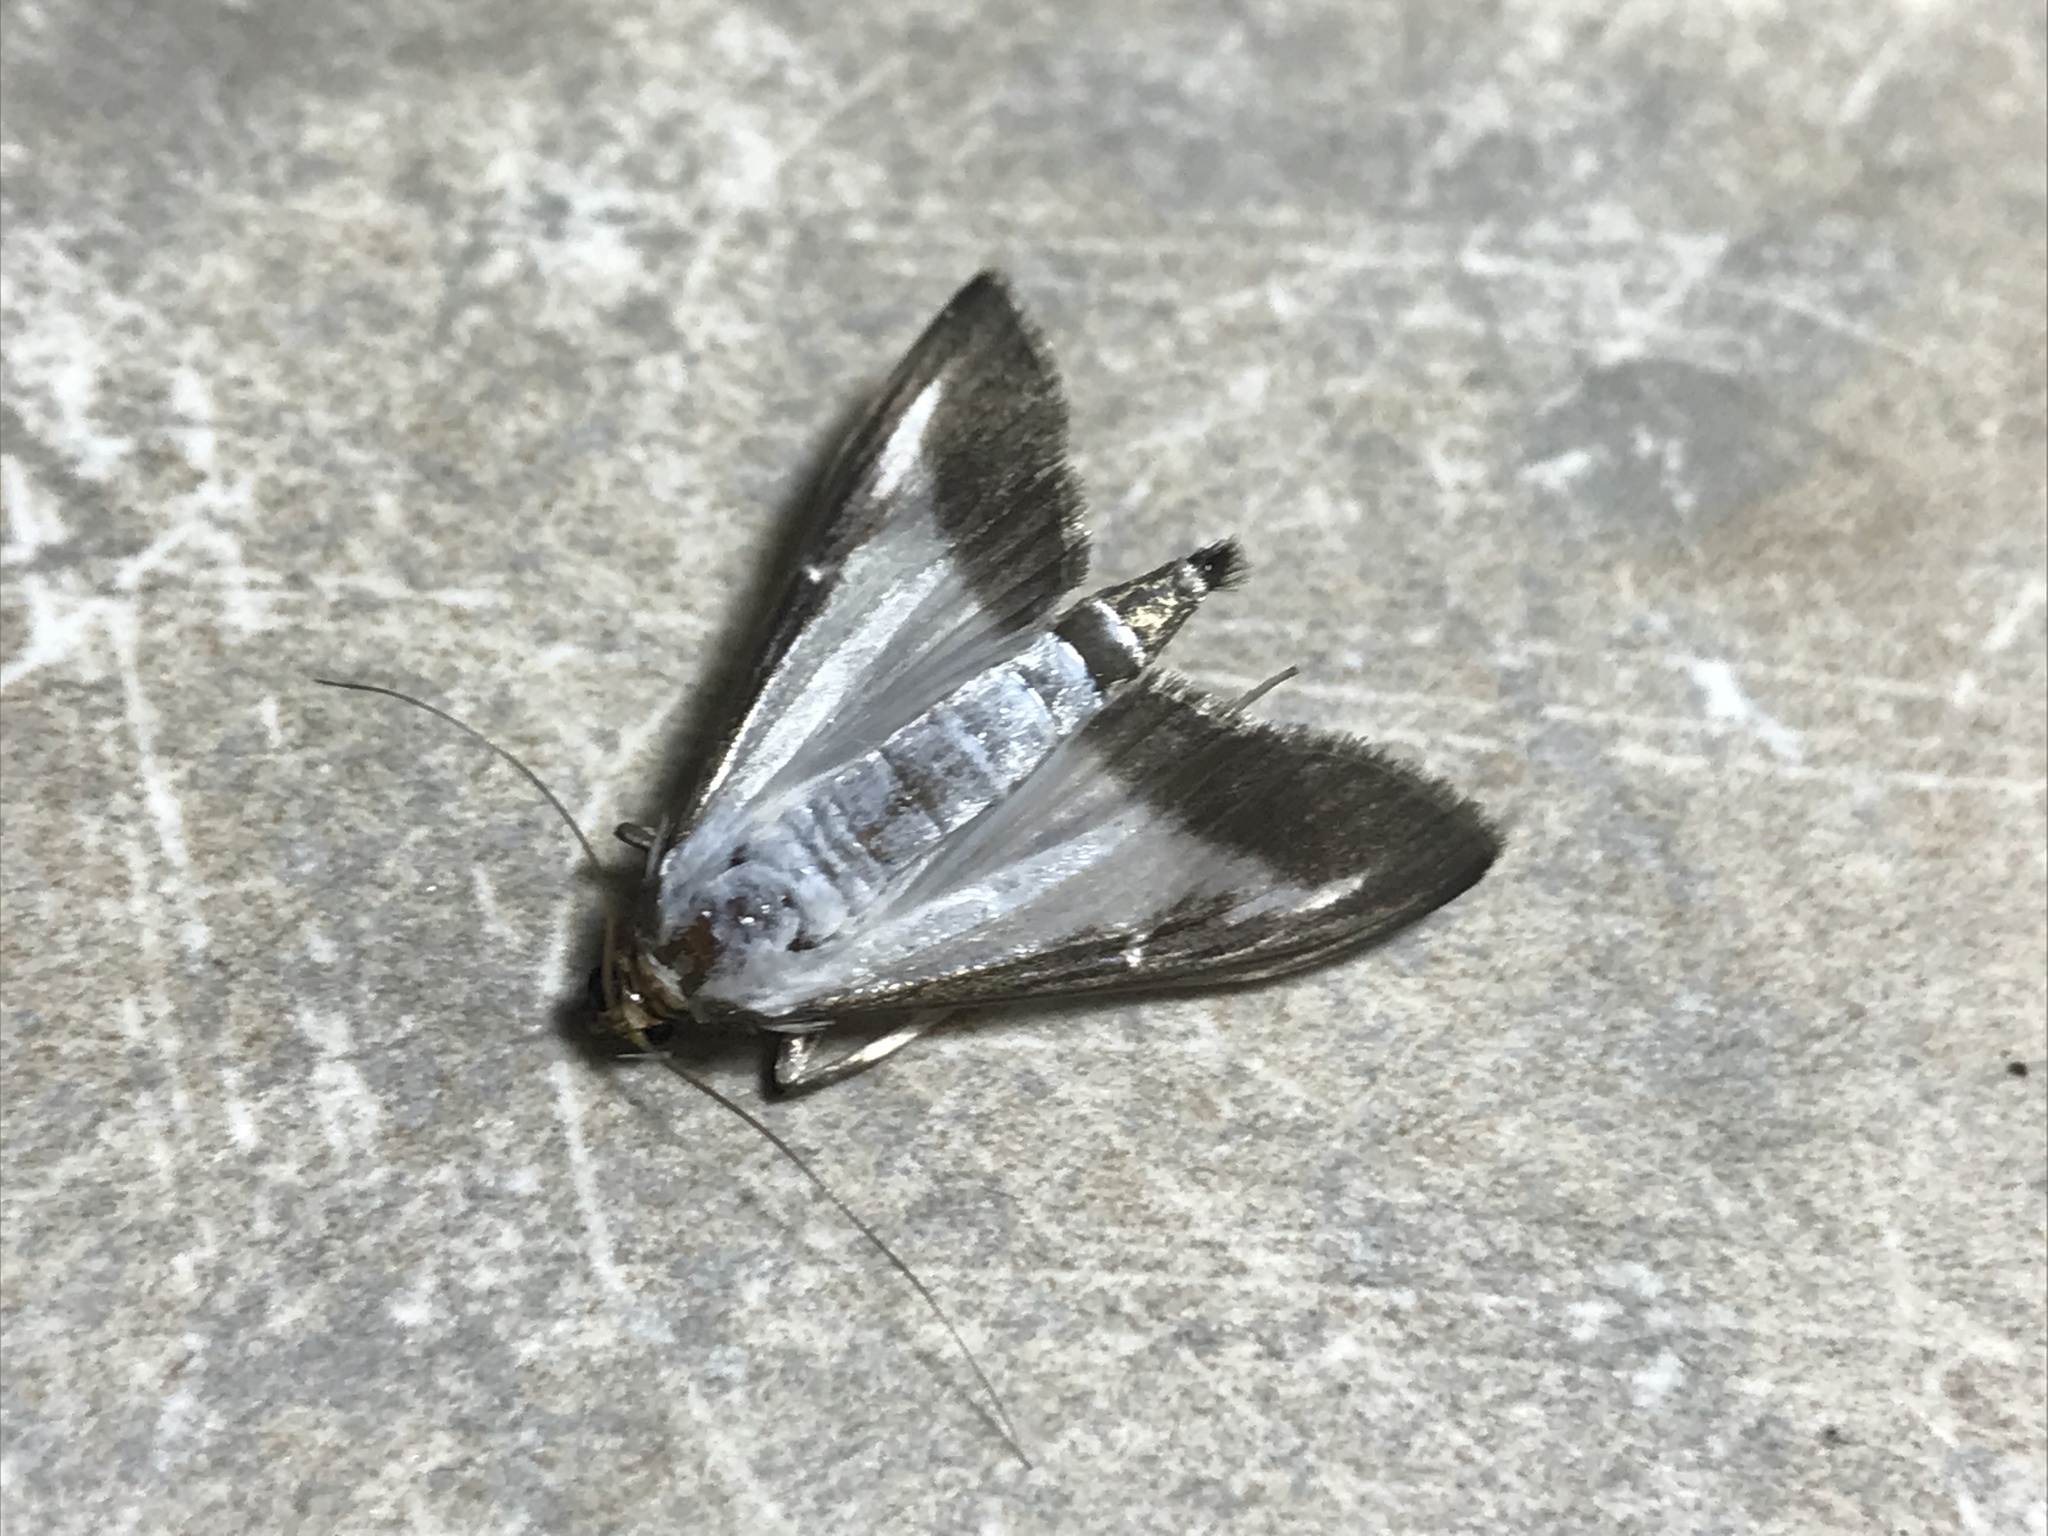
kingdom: Animalia
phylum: Arthropoda
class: Insecta
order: Lepidoptera
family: Crambidae
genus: Cydalima
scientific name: Cydalima perspectalis
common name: Box tree moth
